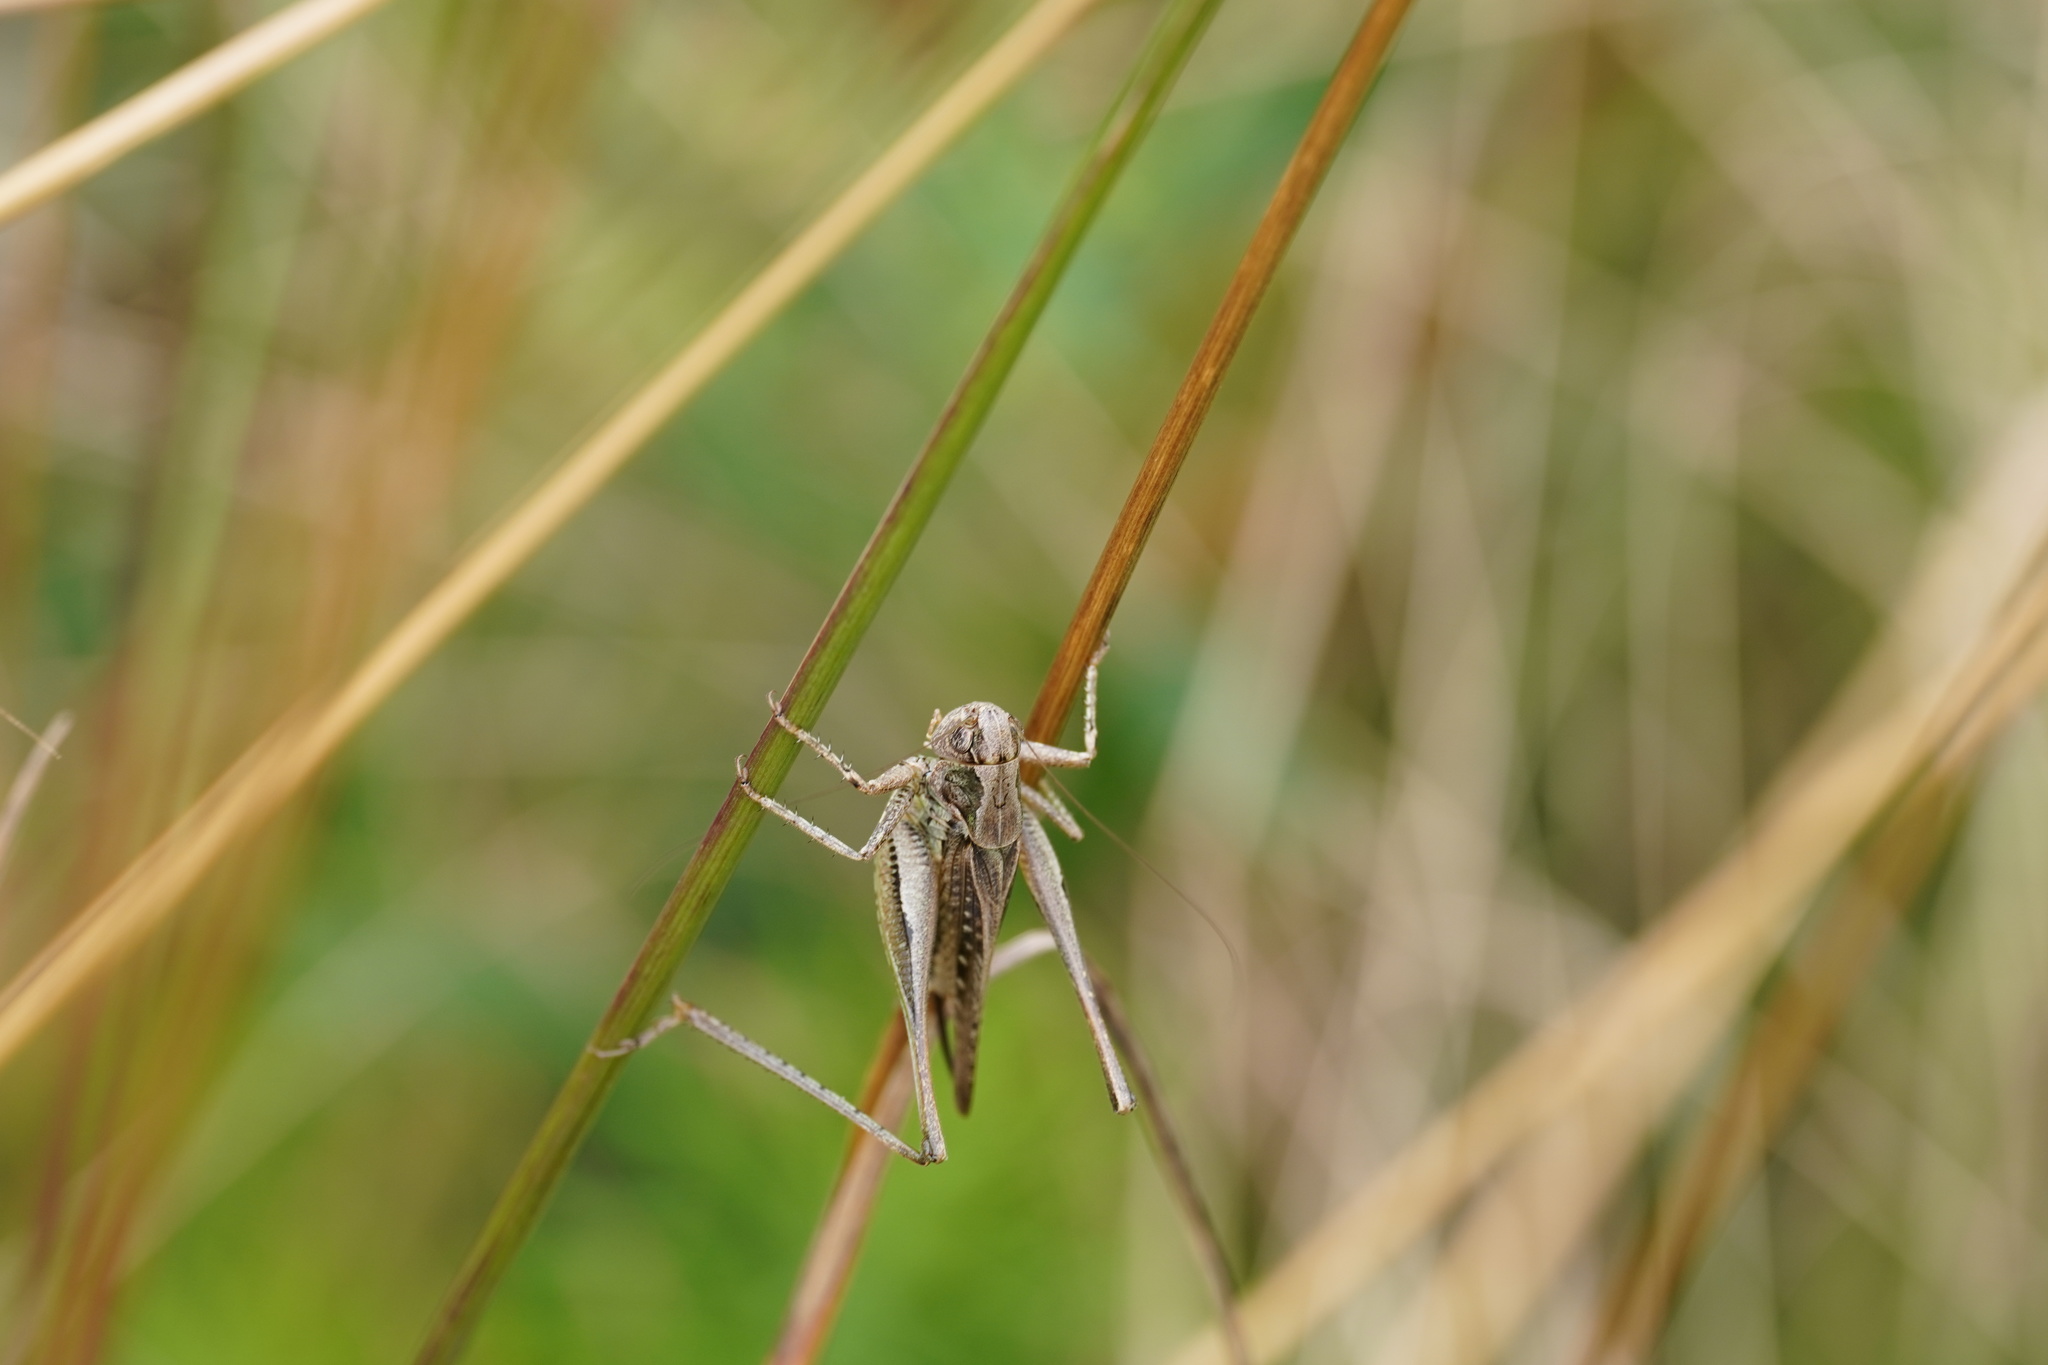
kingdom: Animalia
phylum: Arthropoda
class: Insecta
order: Orthoptera
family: Tettigoniidae
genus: Platycleis
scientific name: Platycleis albopunctata
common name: Grey bush-cricket
